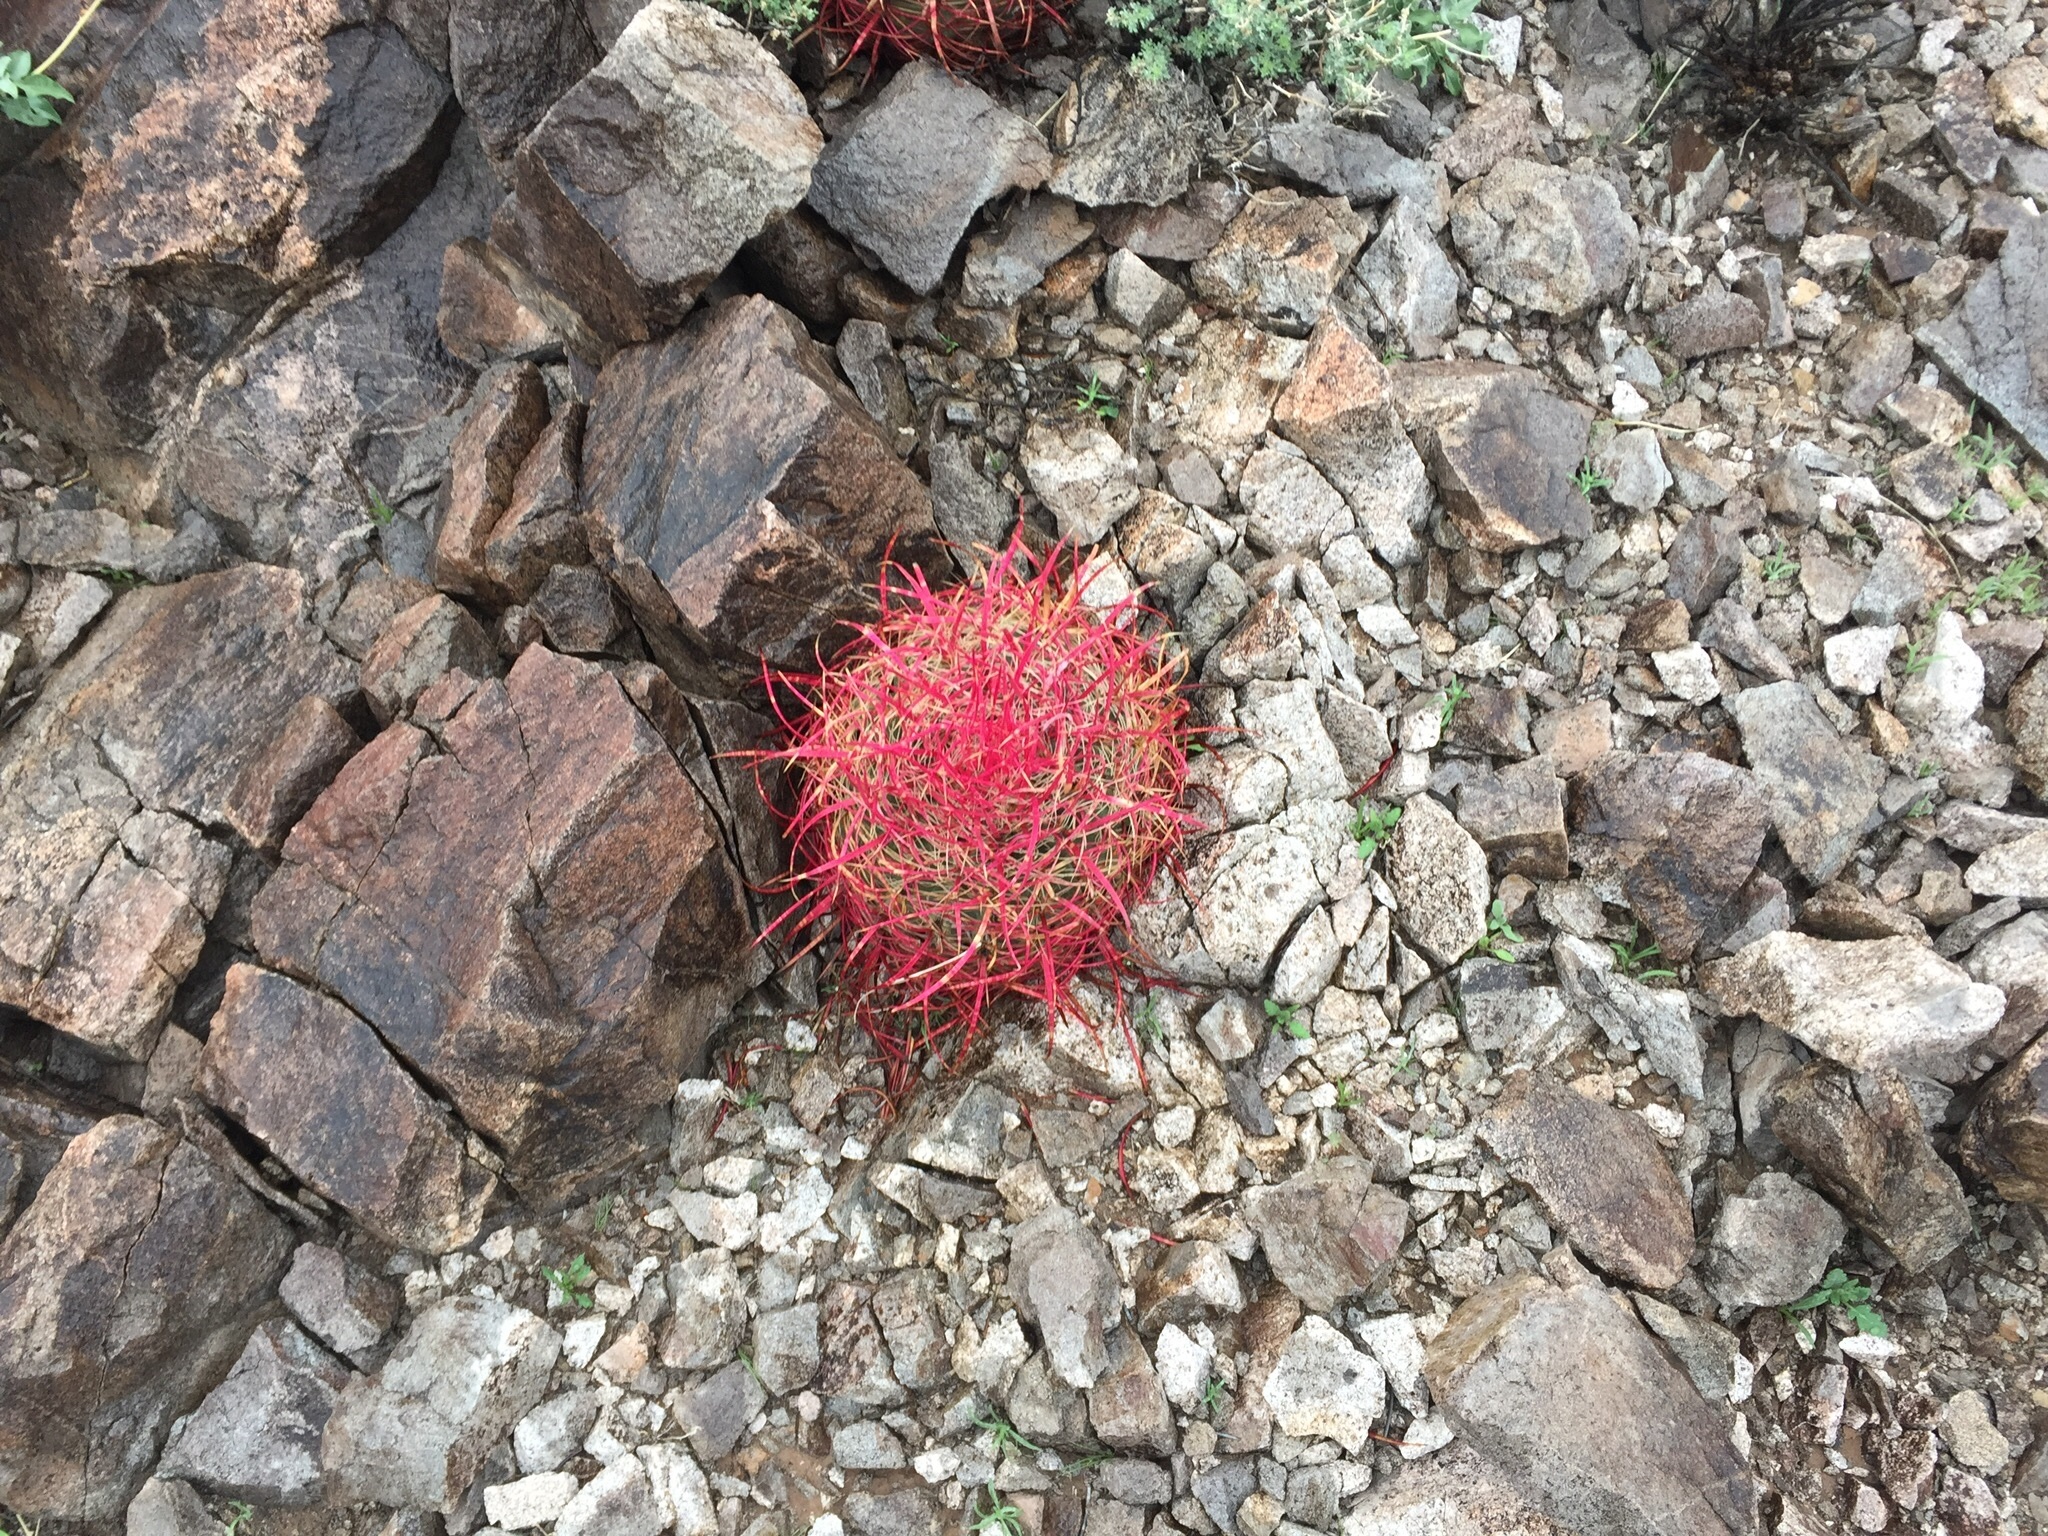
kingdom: Plantae
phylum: Tracheophyta
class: Magnoliopsida
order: Caryophyllales
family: Cactaceae
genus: Ferocactus
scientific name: Ferocactus cylindraceus
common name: California barrel cactus
